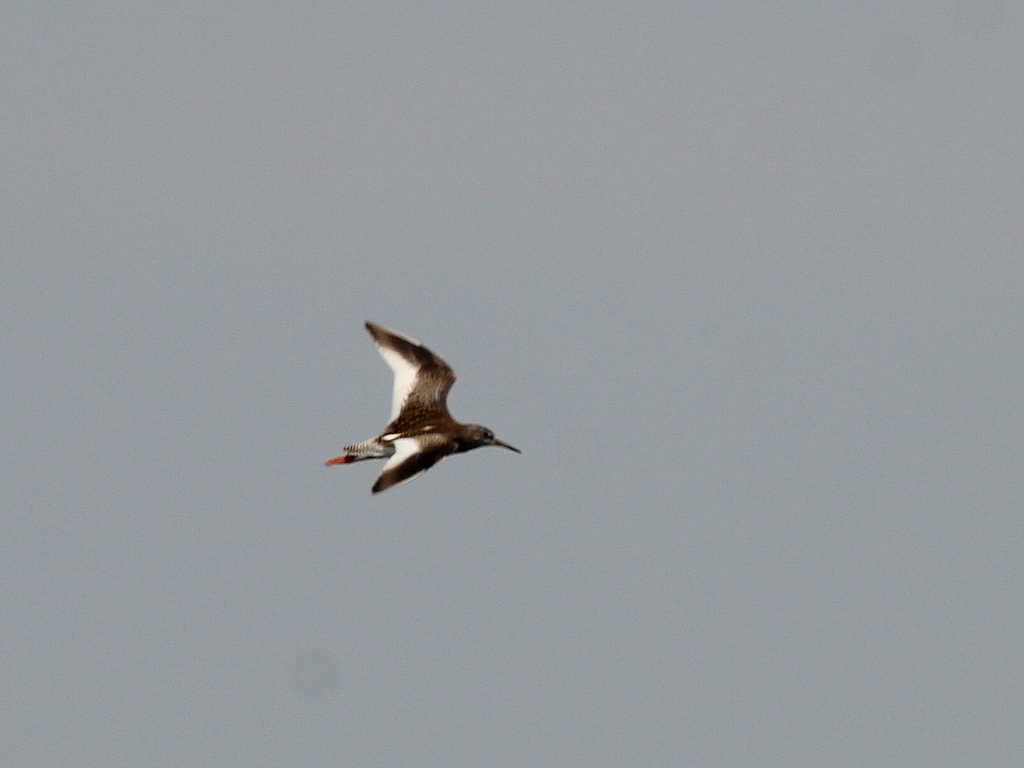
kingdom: Animalia
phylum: Chordata
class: Aves
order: Charadriiformes
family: Scolopacidae
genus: Tringa
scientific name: Tringa totanus
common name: Common redshank
